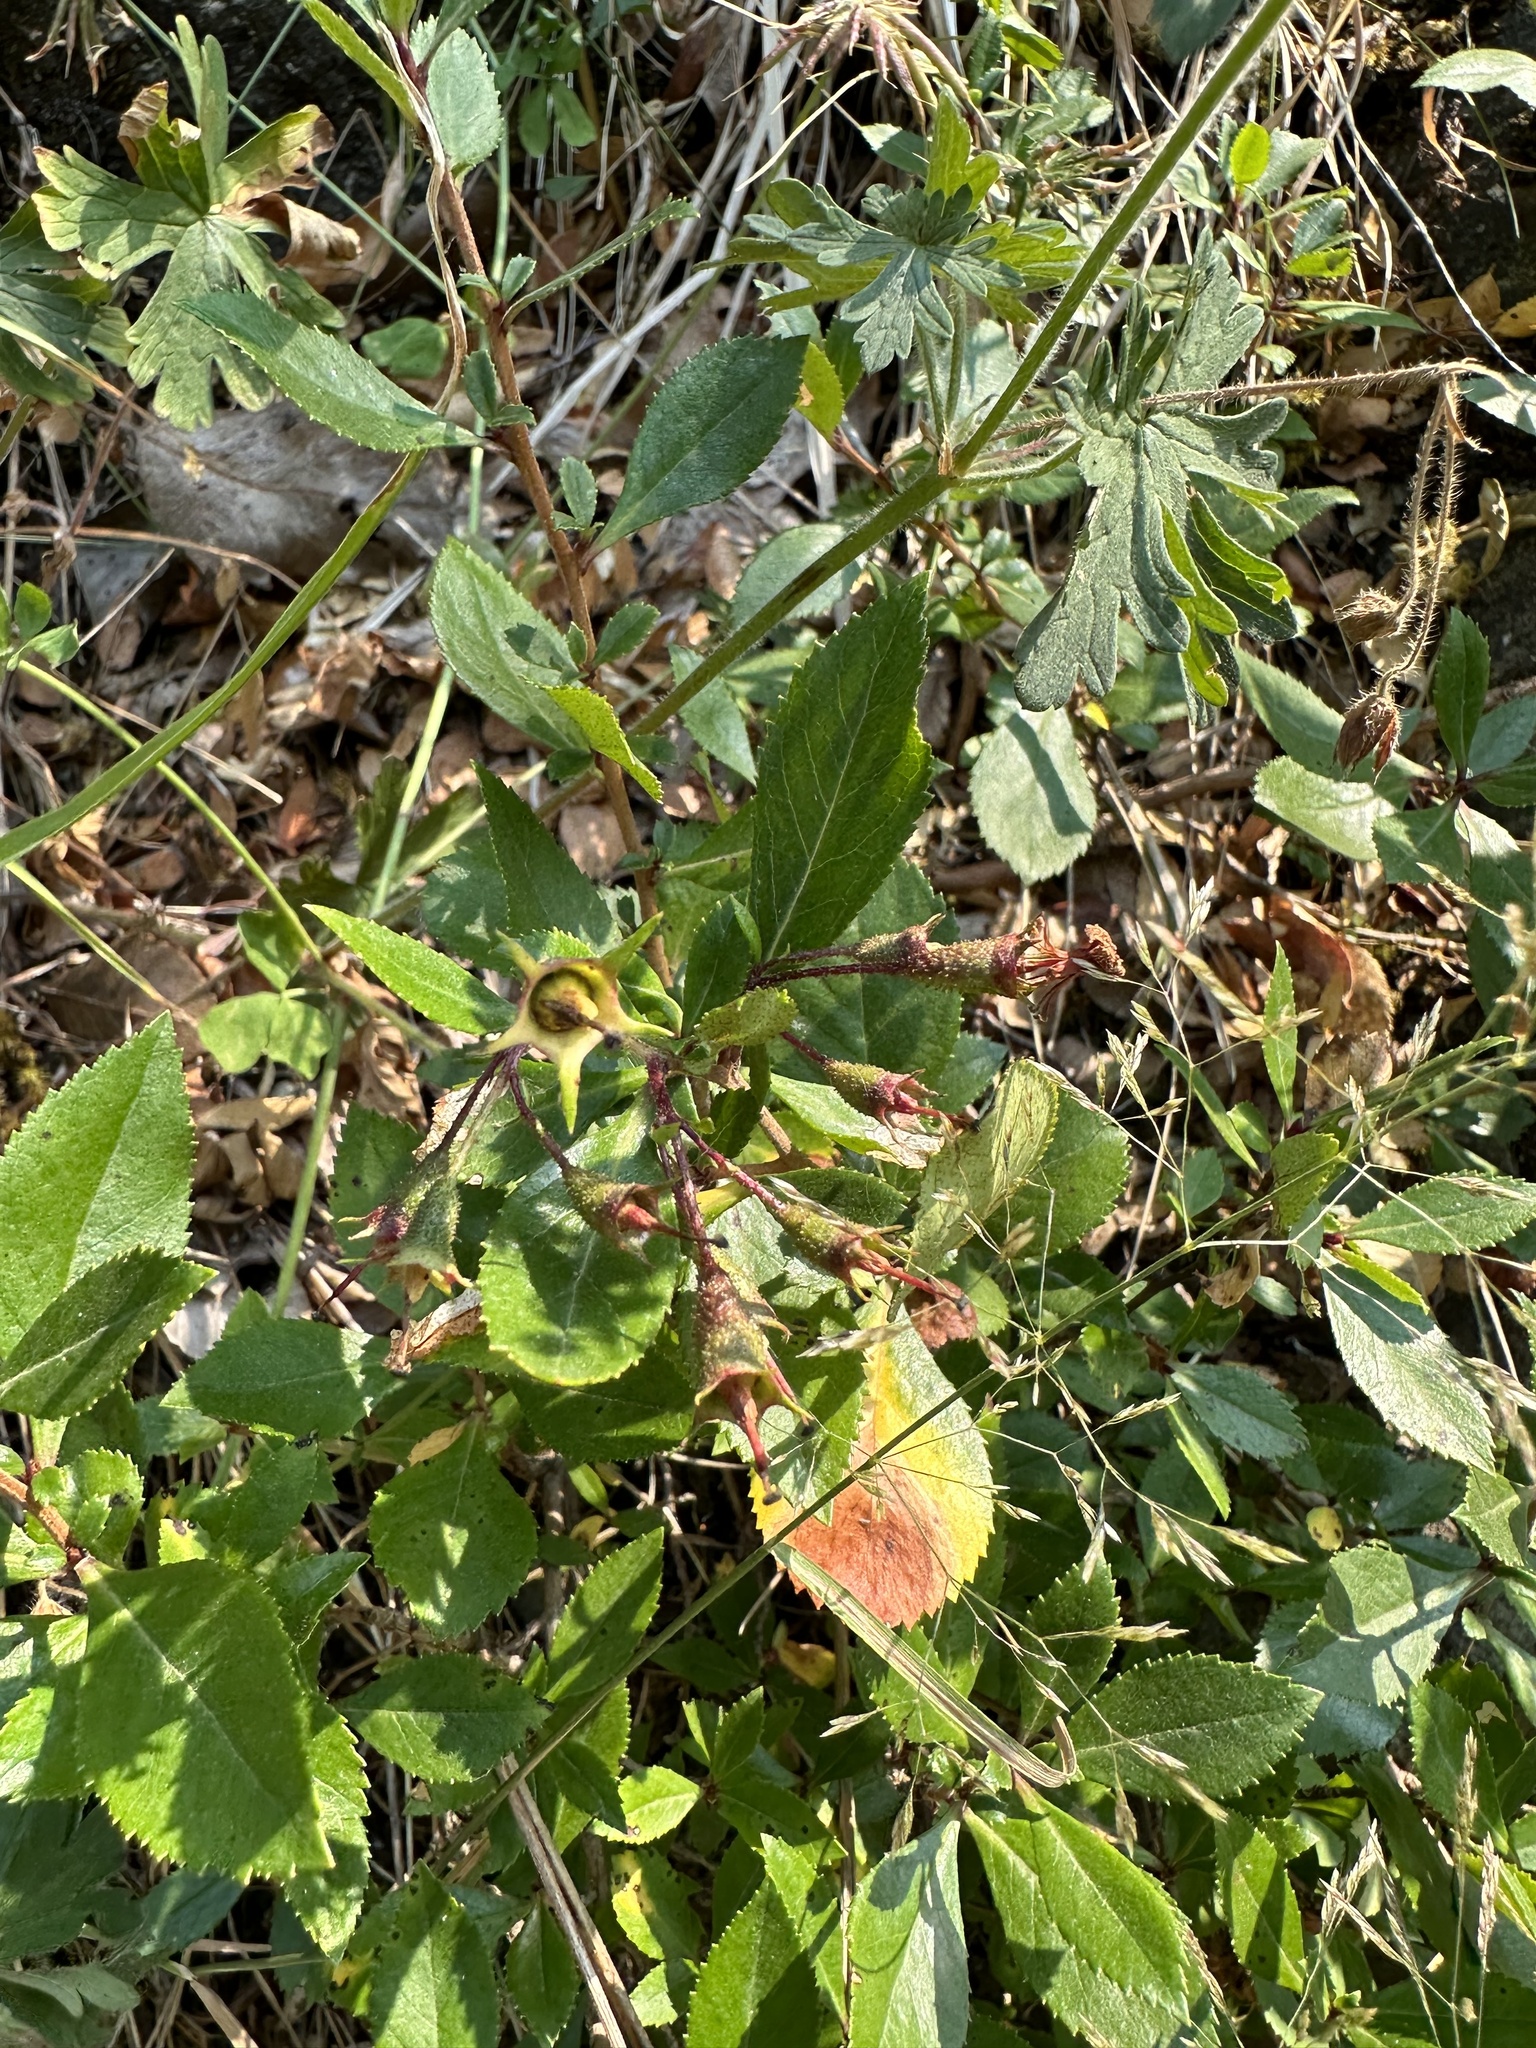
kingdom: Plantae
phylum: Tracheophyta
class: Magnoliopsida
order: Escalloniales
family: Escalloniaceae
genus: Escallonia
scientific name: Escallonia rubra
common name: Redclaws
